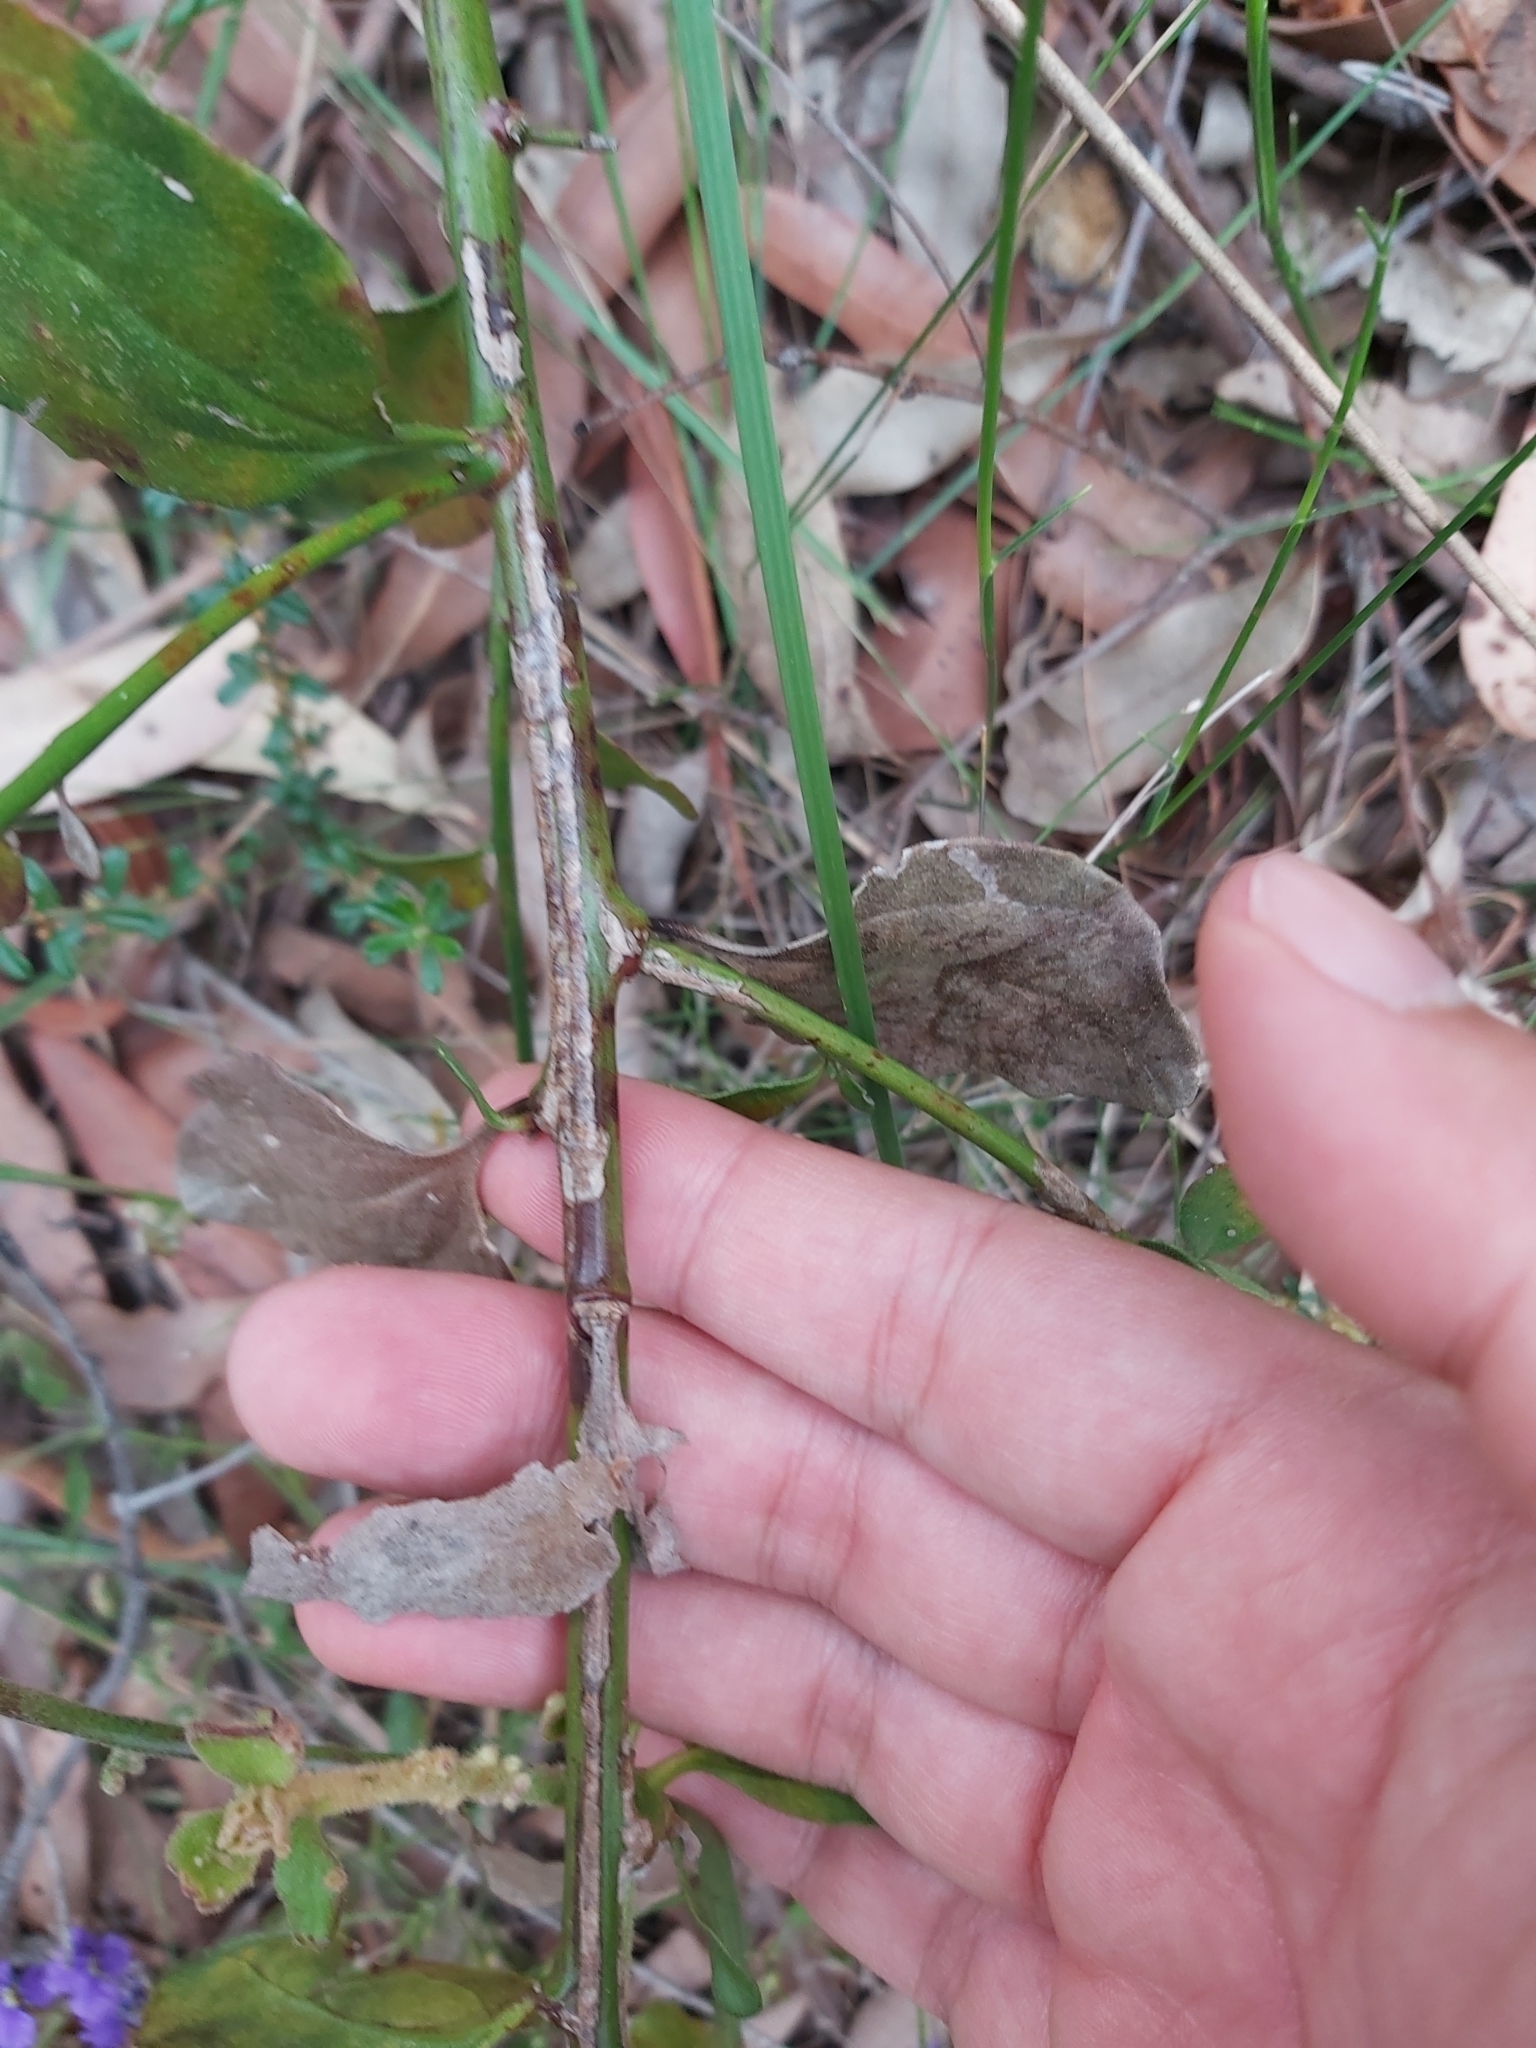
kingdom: Plantae
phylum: Tracheophyta
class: Magnoliopsida
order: Asterales
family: Goodeniaceae
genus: Dampiera
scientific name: Dampiera purpurea
